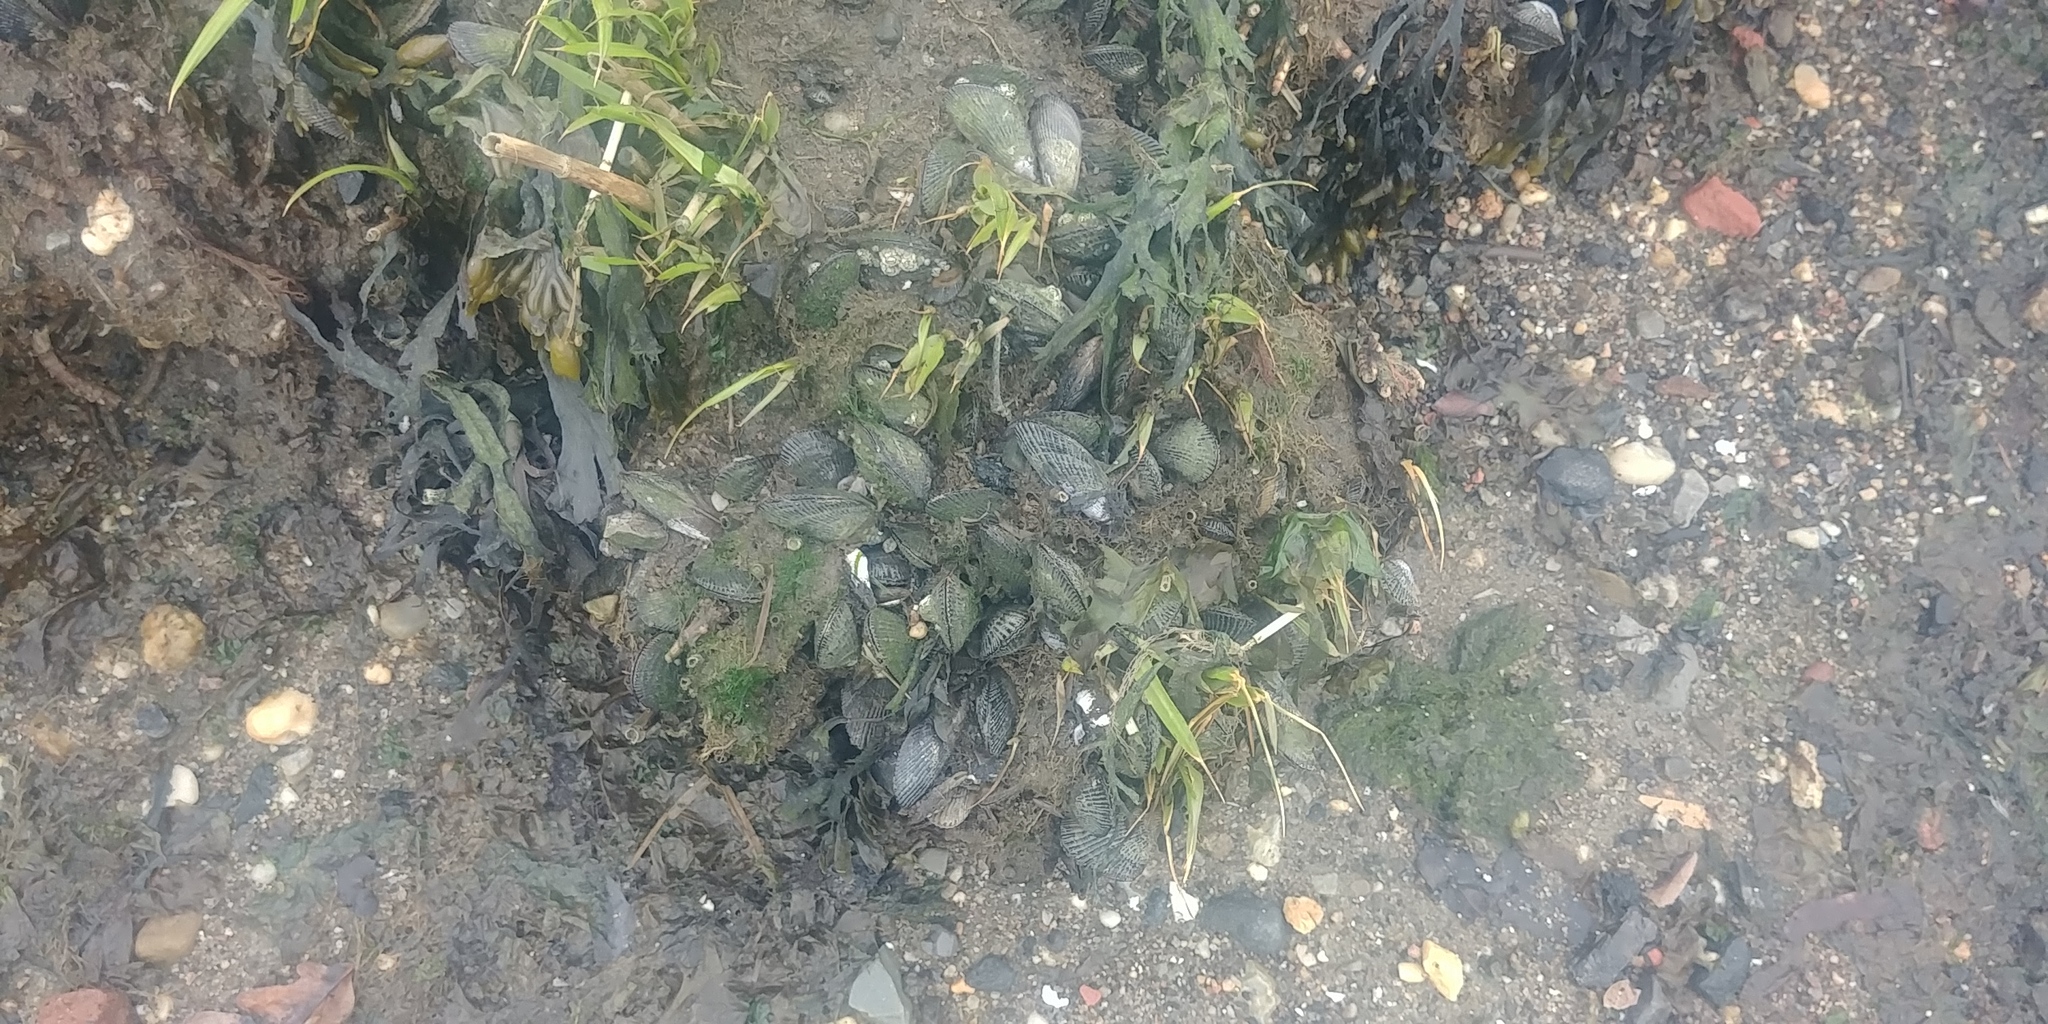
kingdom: Animalia
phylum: Mollusca
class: Bivalvia
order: Mytilida
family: Mytilidae
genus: Geukensia
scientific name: Geukensia demissa
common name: Ribbed mussel
